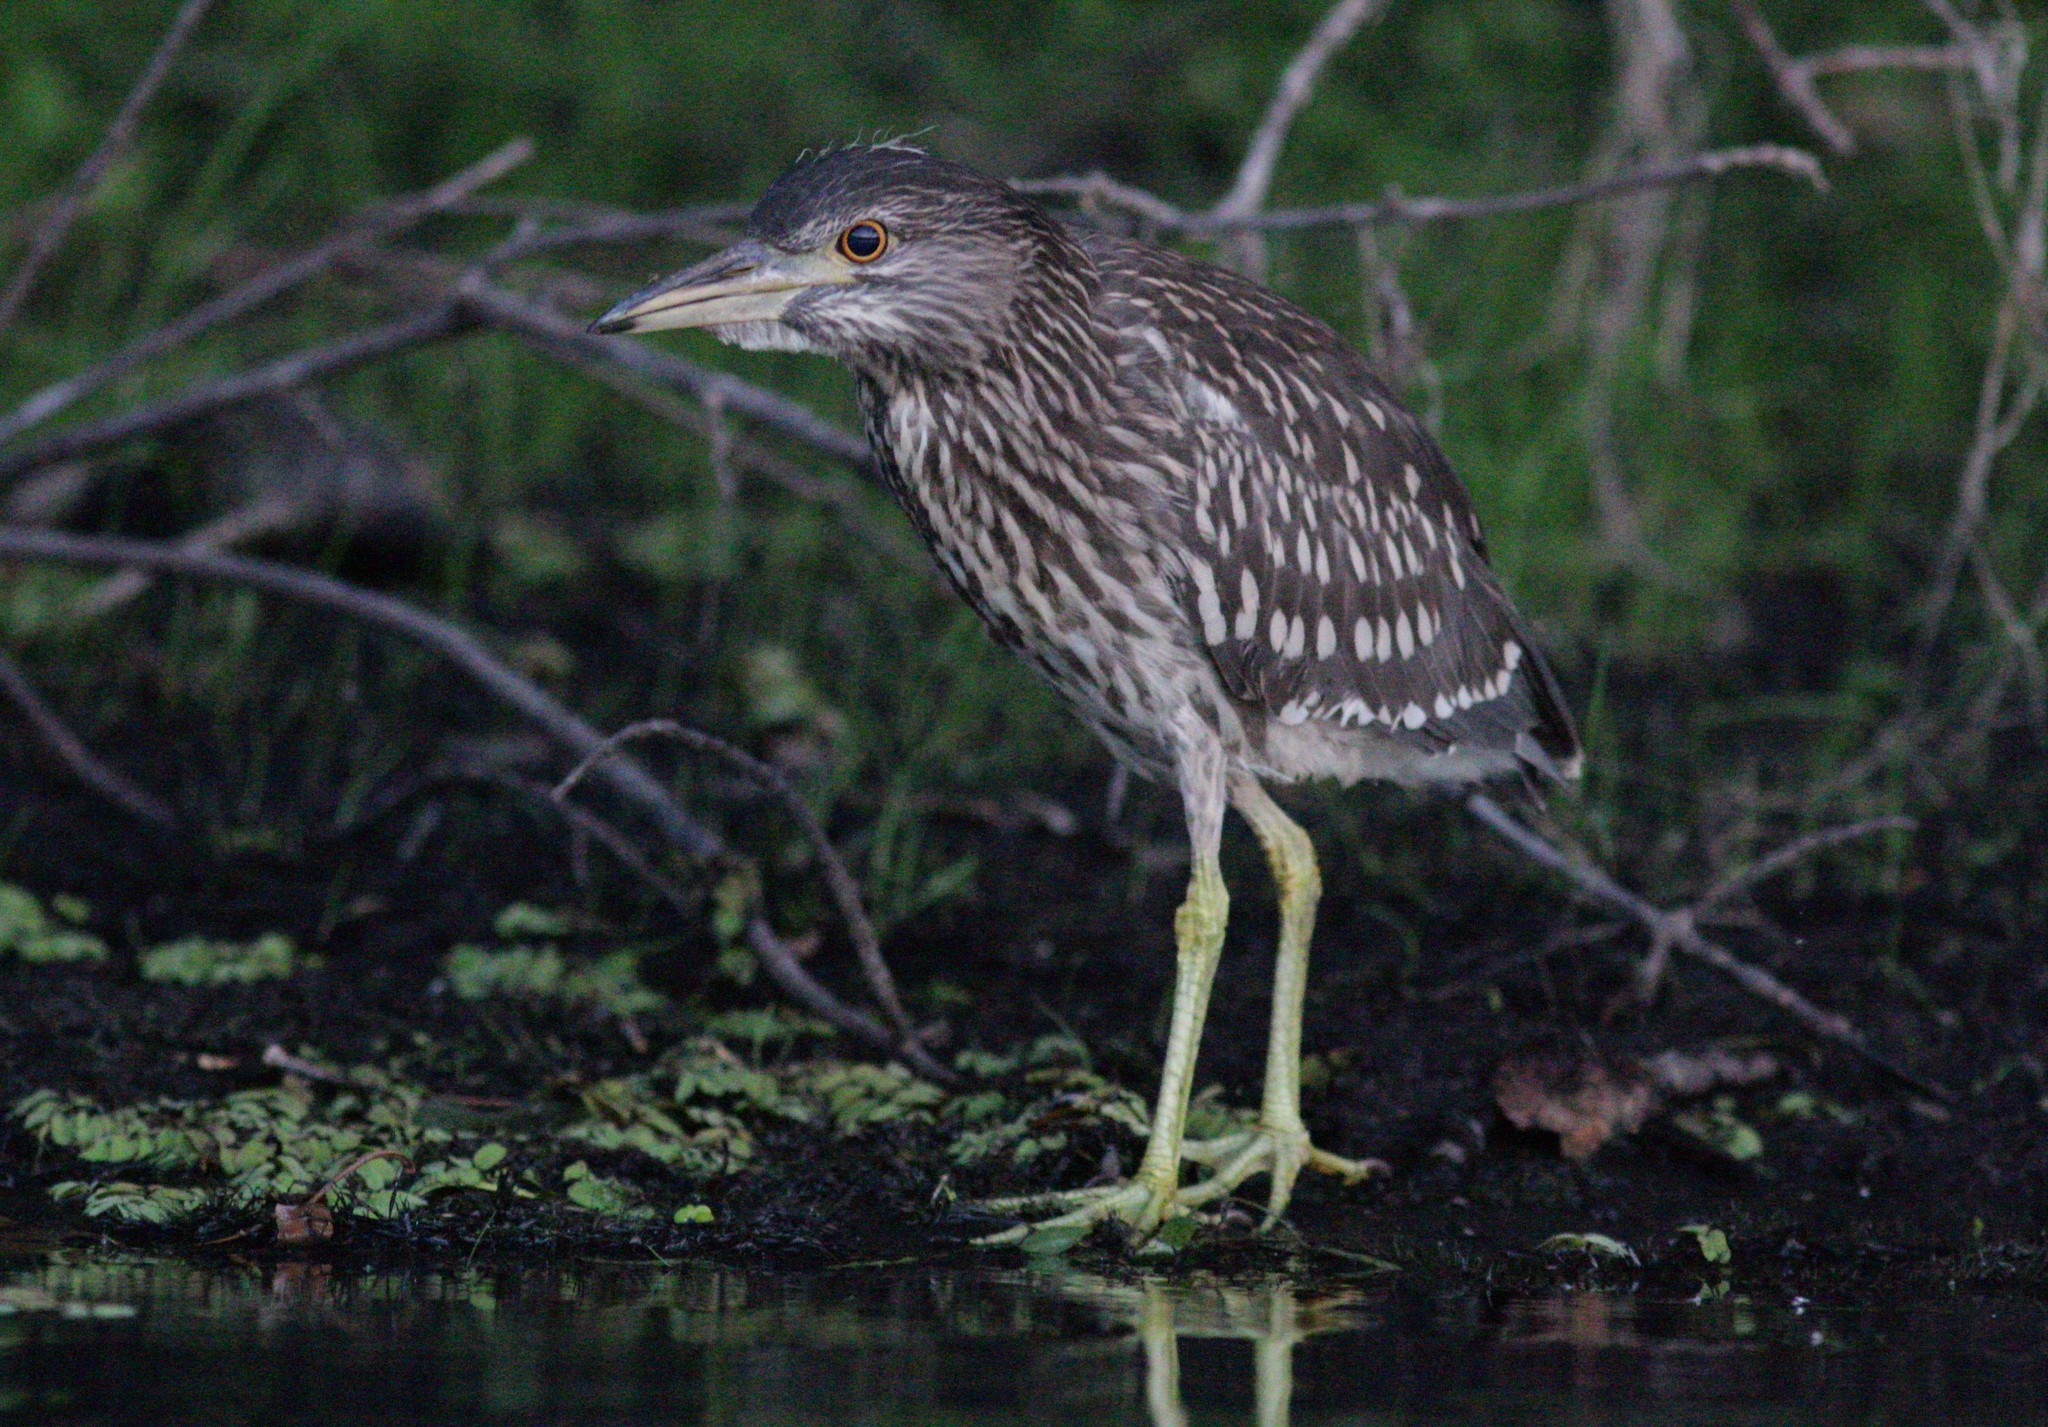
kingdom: Animalia
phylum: Chordata
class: Aves
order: Pelecaniformes
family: Ardeidae
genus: Nycticorax
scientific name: Nycticorax nycticorax
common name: Black-crowned night heron
